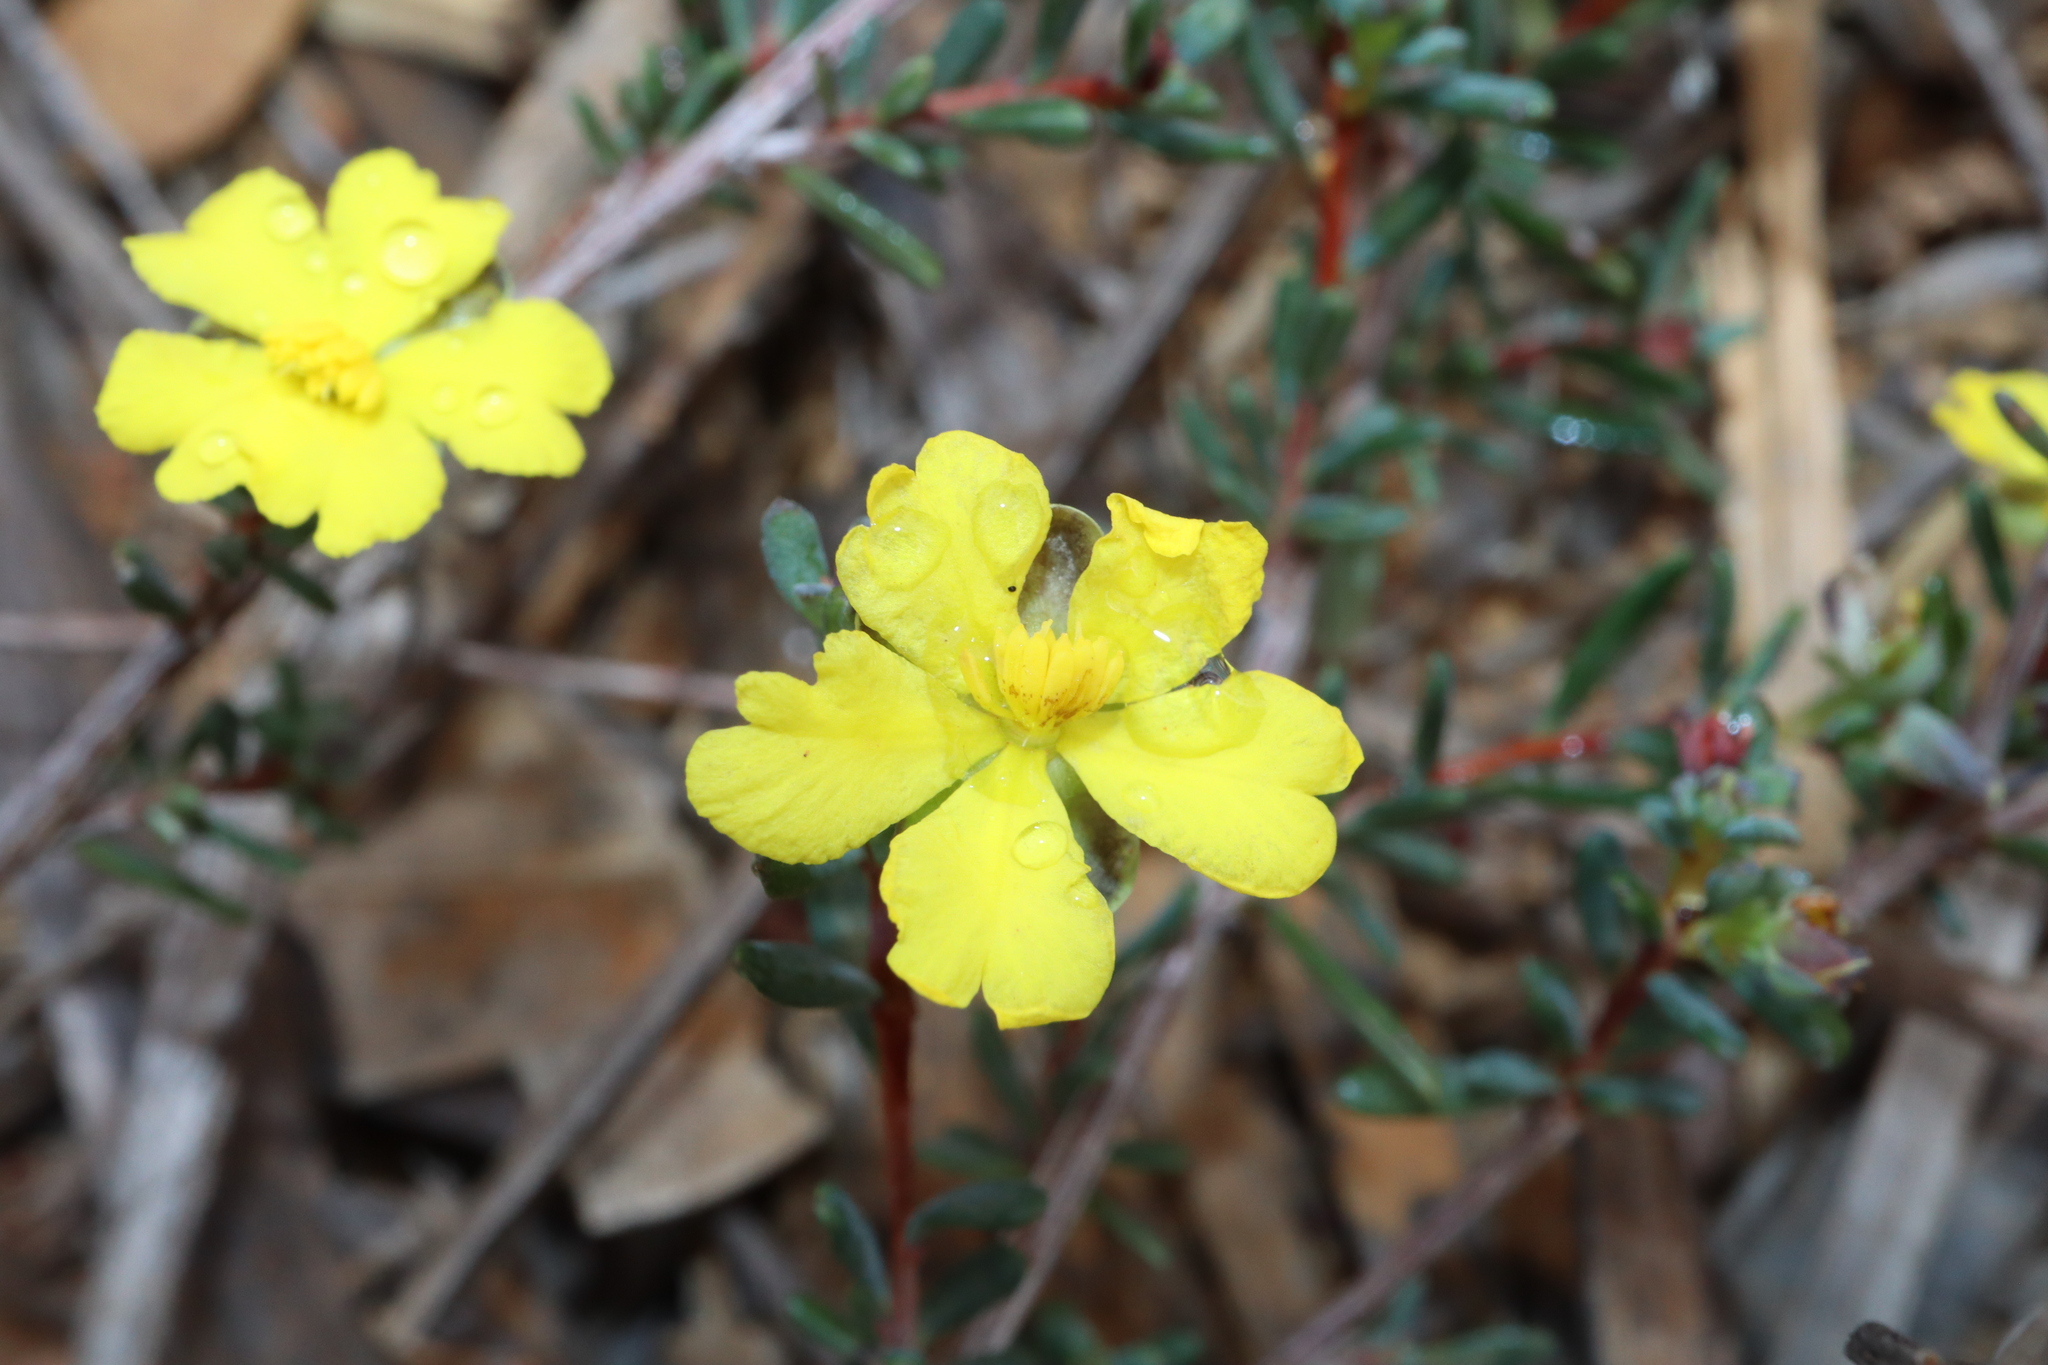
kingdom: Plantae
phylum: Tracheophyta
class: Magnoliopsida
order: Dilleniales
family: Dilleniaceae
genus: Hibbertia
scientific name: Hibbertia gracilipes
